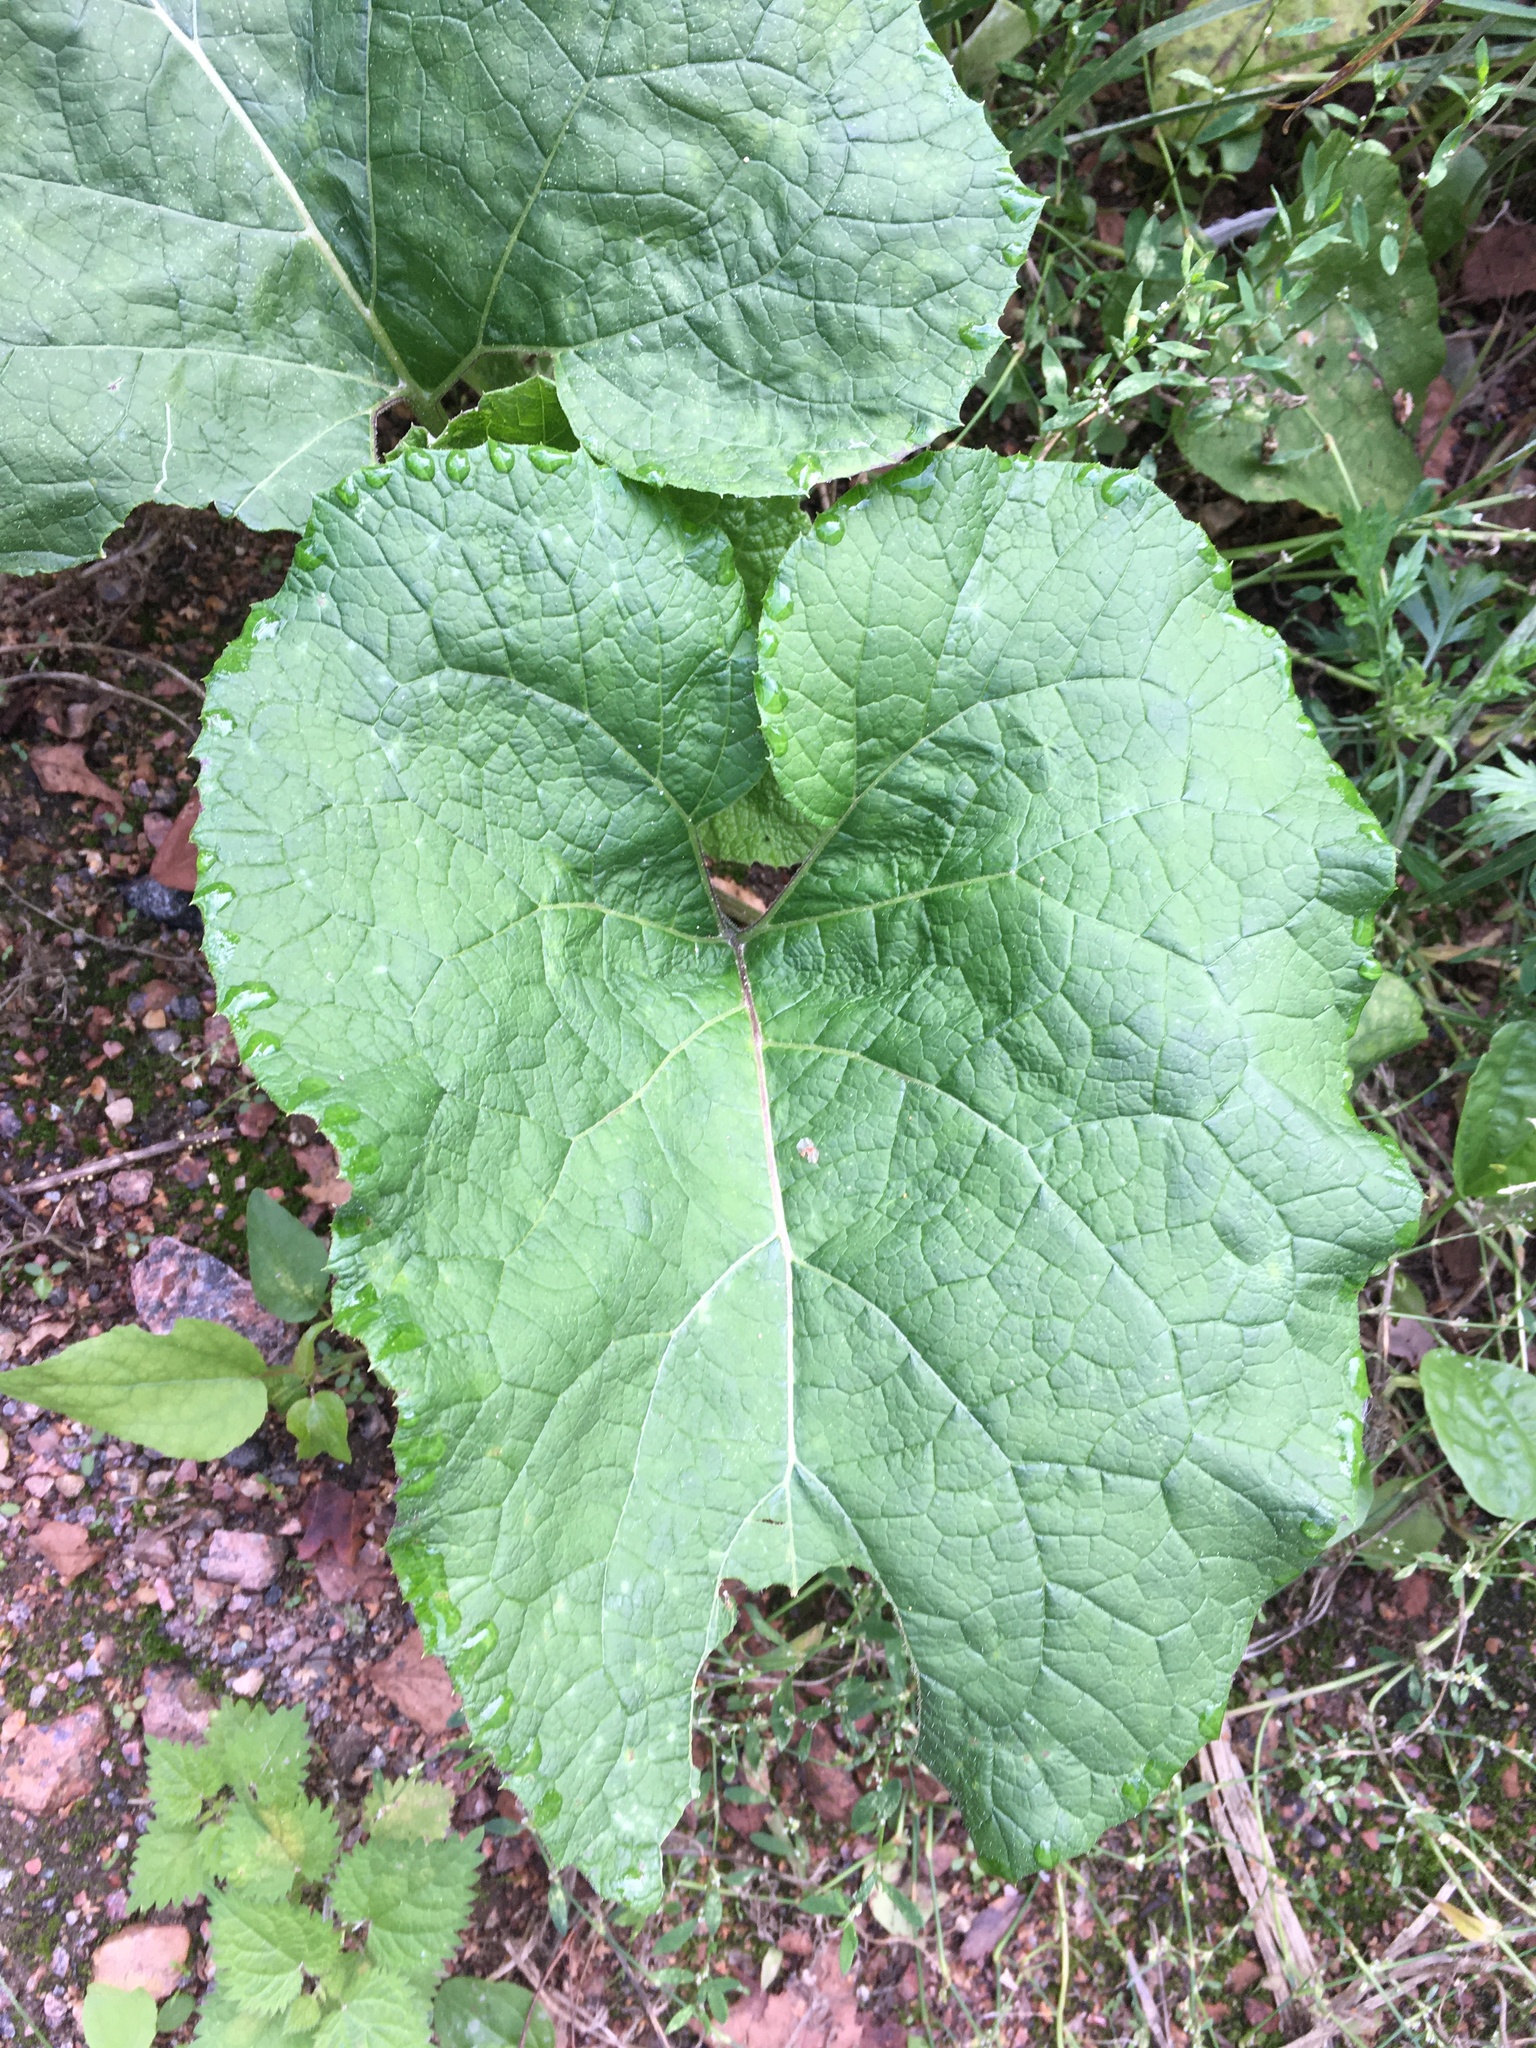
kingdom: Plantae
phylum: Tracheophyta
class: Magnoliopsida
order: Asterales
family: Asteraceae
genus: Arctium
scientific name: Arctium
